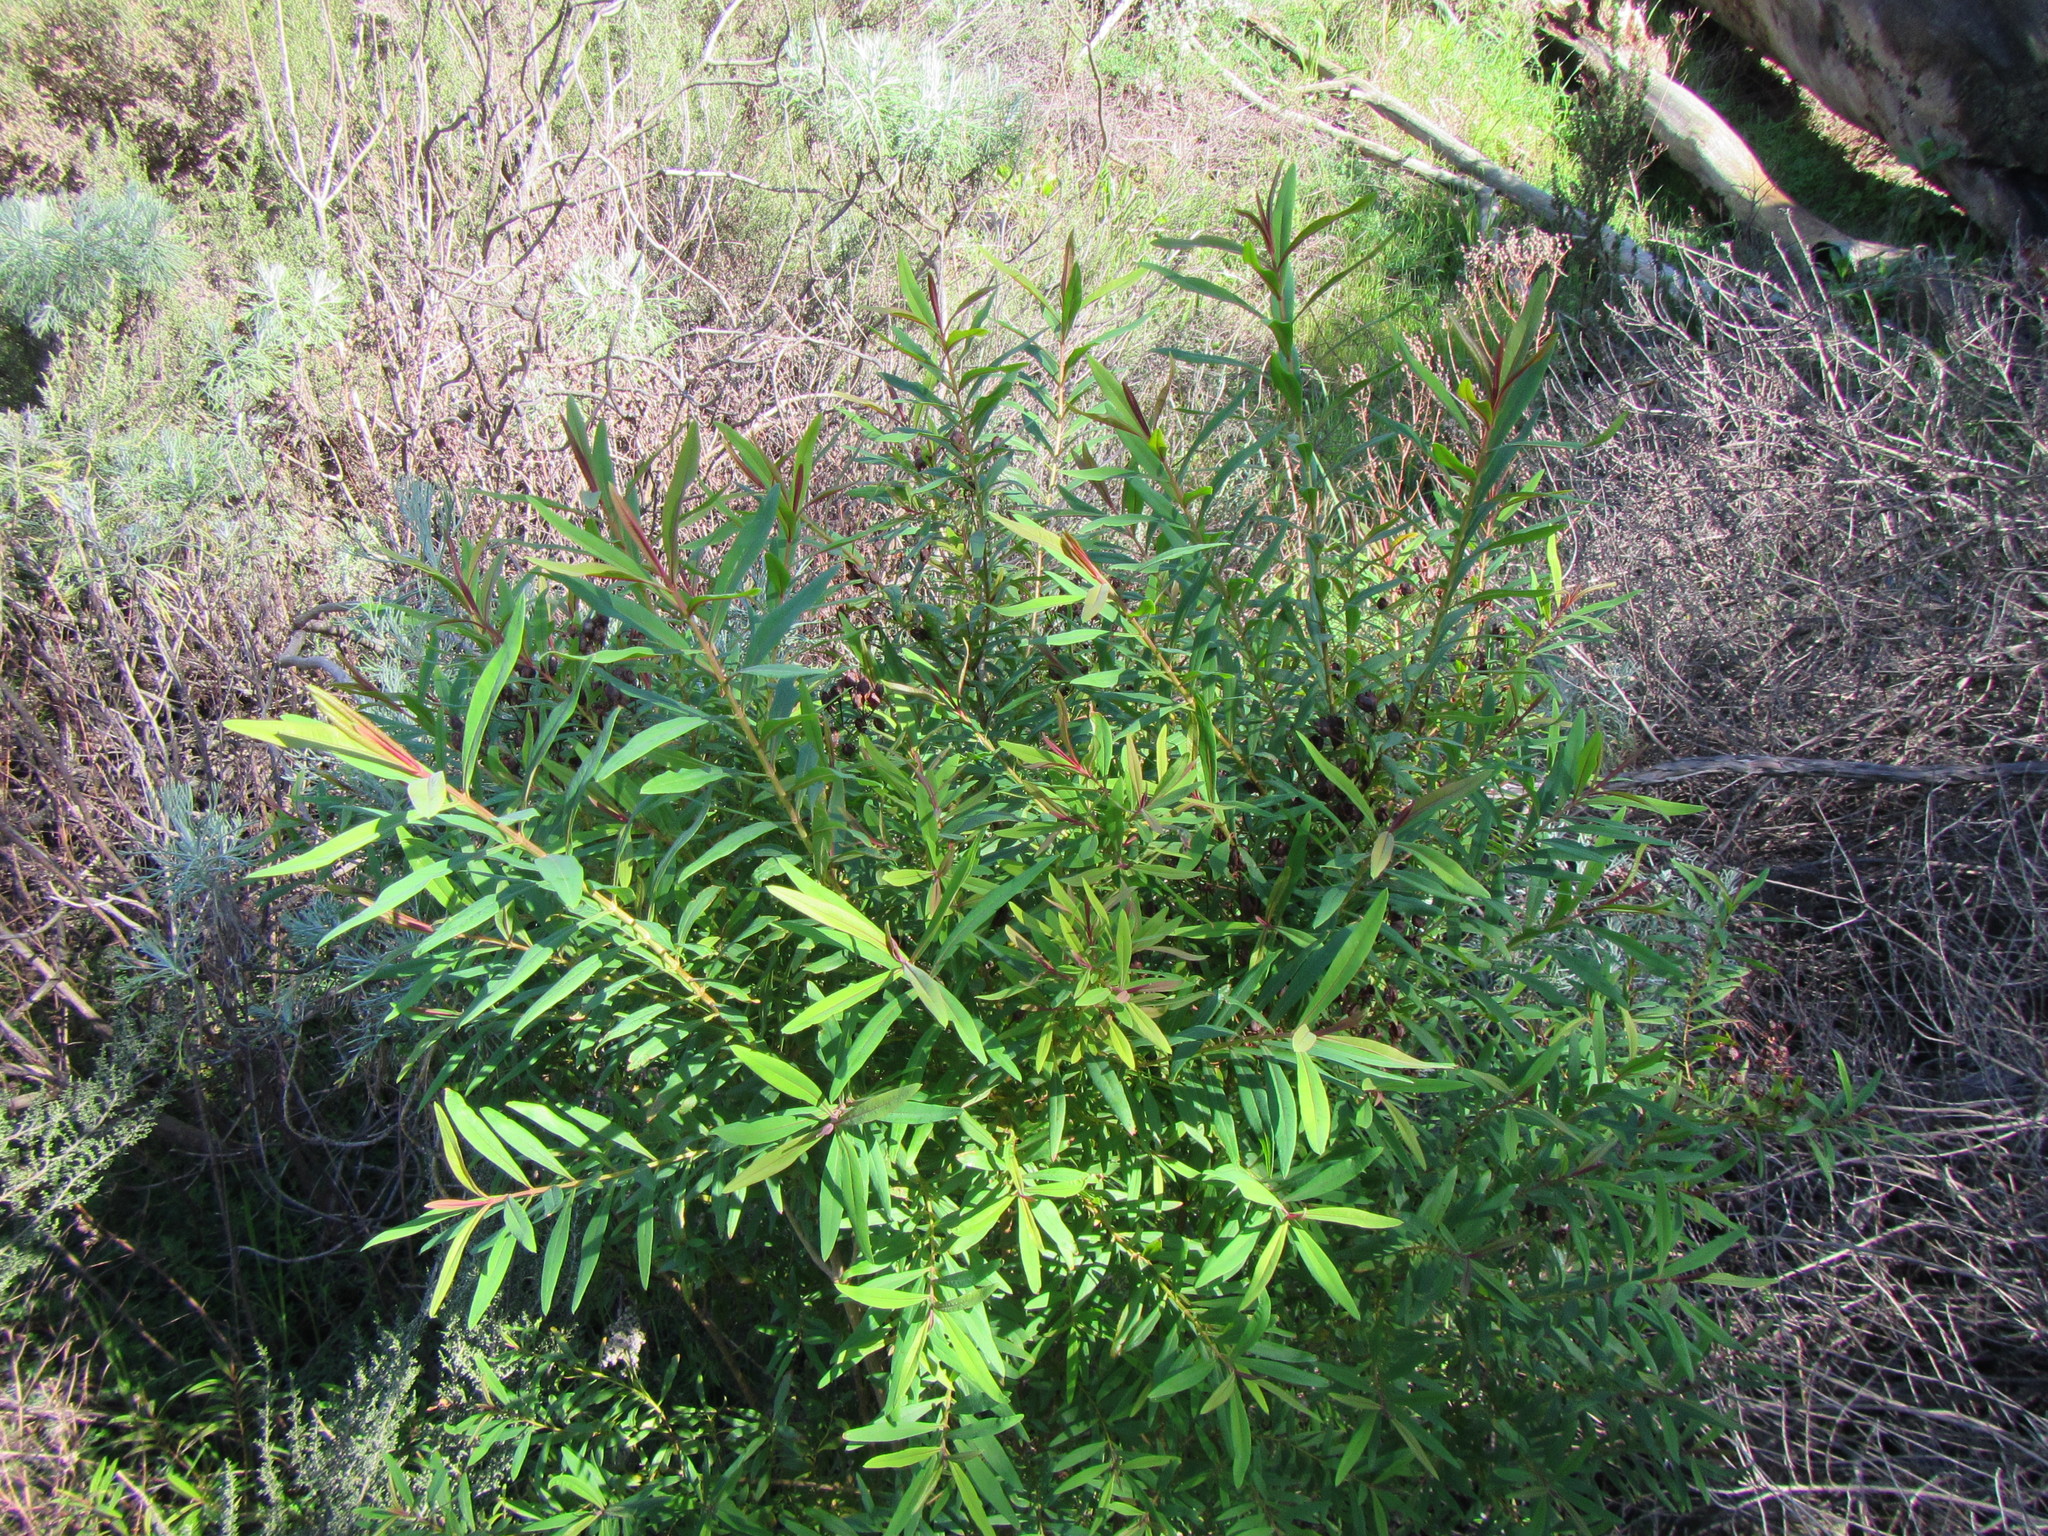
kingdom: Plantae
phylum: Tracheophyta
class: Magnoliopsida
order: Malpighiales
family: Hypericaceae
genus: Hypericum
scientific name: Hypericum canariense
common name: Canary island st. johnswort
